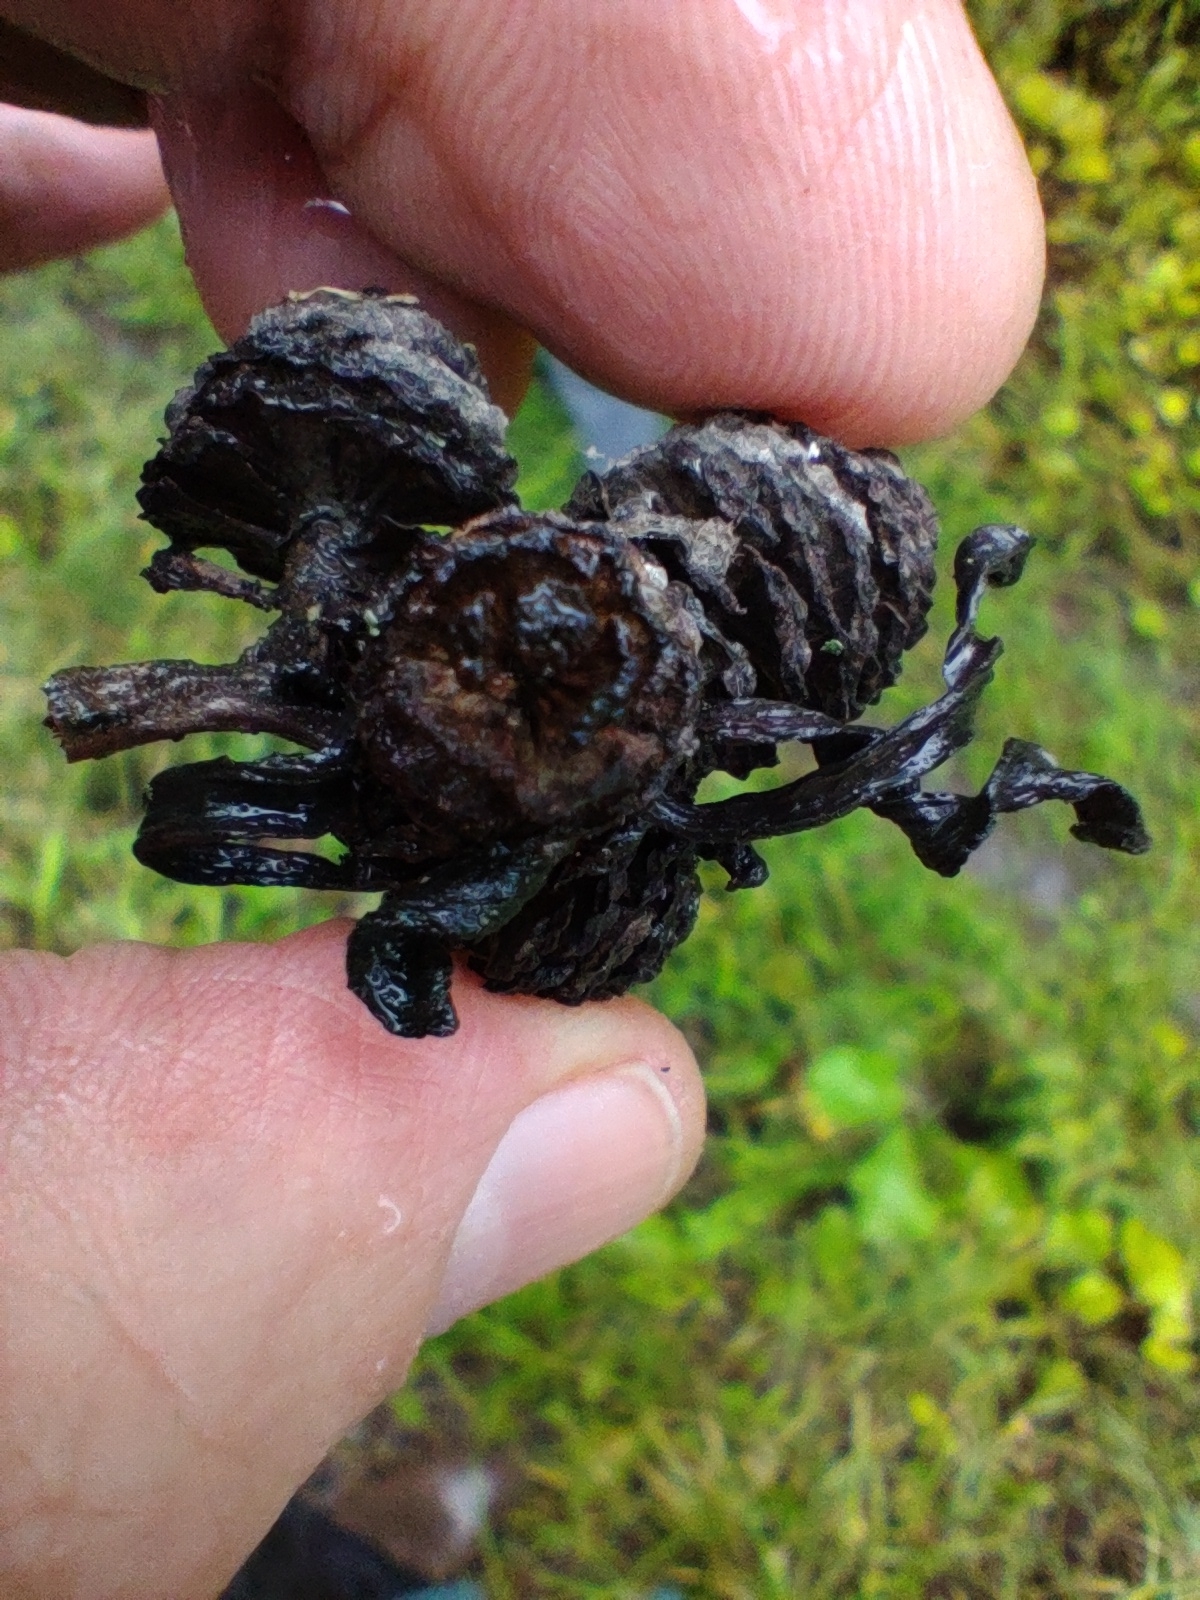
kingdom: Fungi
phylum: Ascomycota
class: Taphrinomycetes
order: Taphrinales
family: Taphrinaceae
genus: Taphrina
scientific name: Taphrina robinsoniana
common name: Eastern american alder tongue gall fungus
